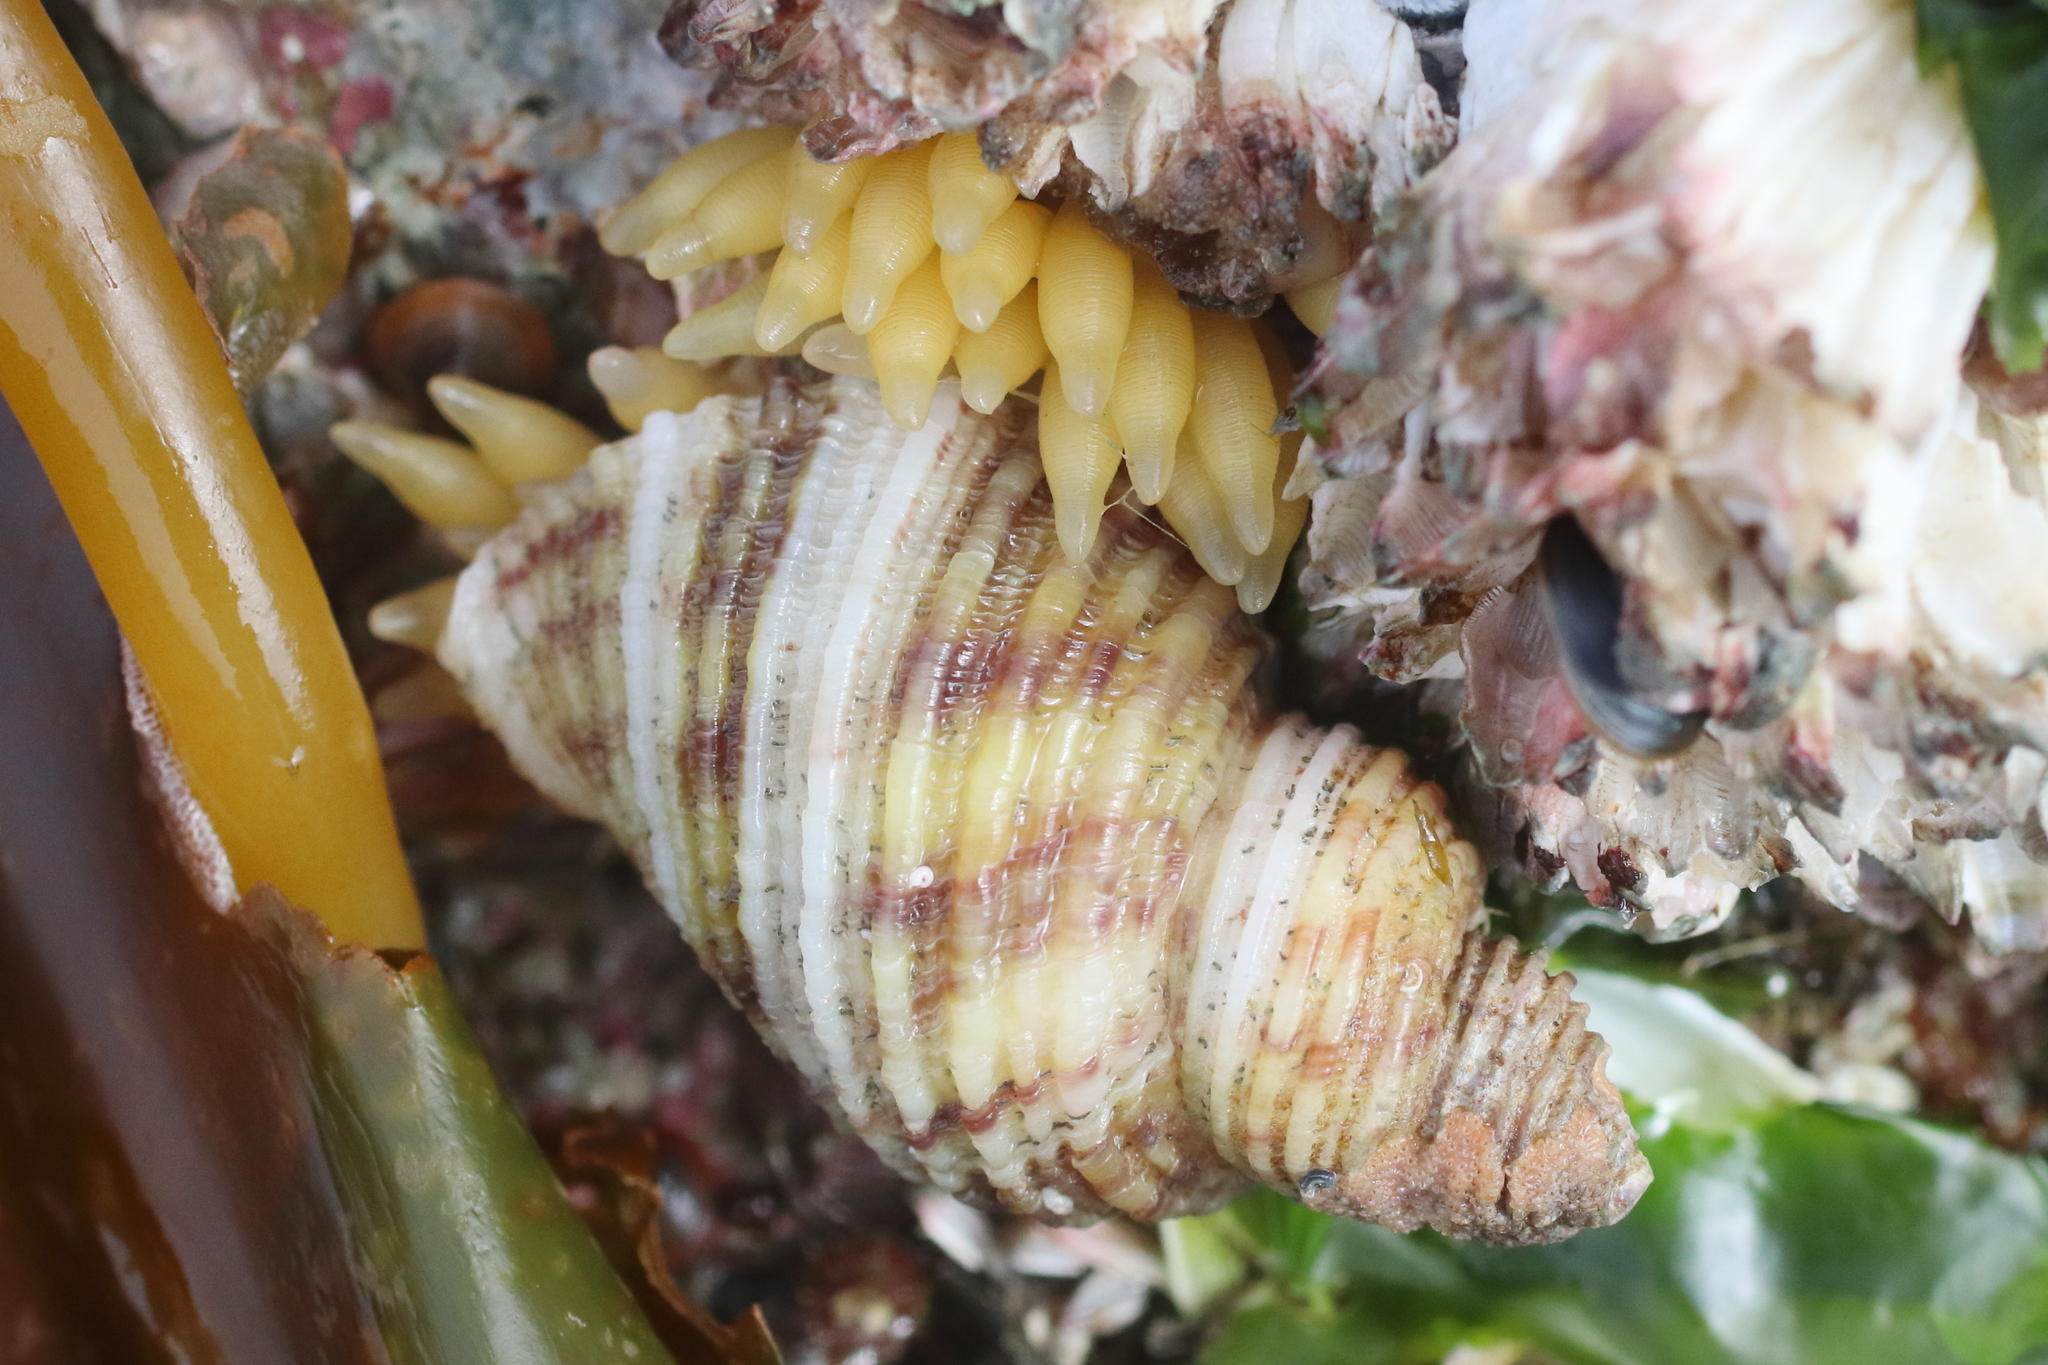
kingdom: Animalia
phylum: Mollusca
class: Gastropoda
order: Neogastropoda
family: Muricidae
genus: Nucella
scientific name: Nucella canaliculata
